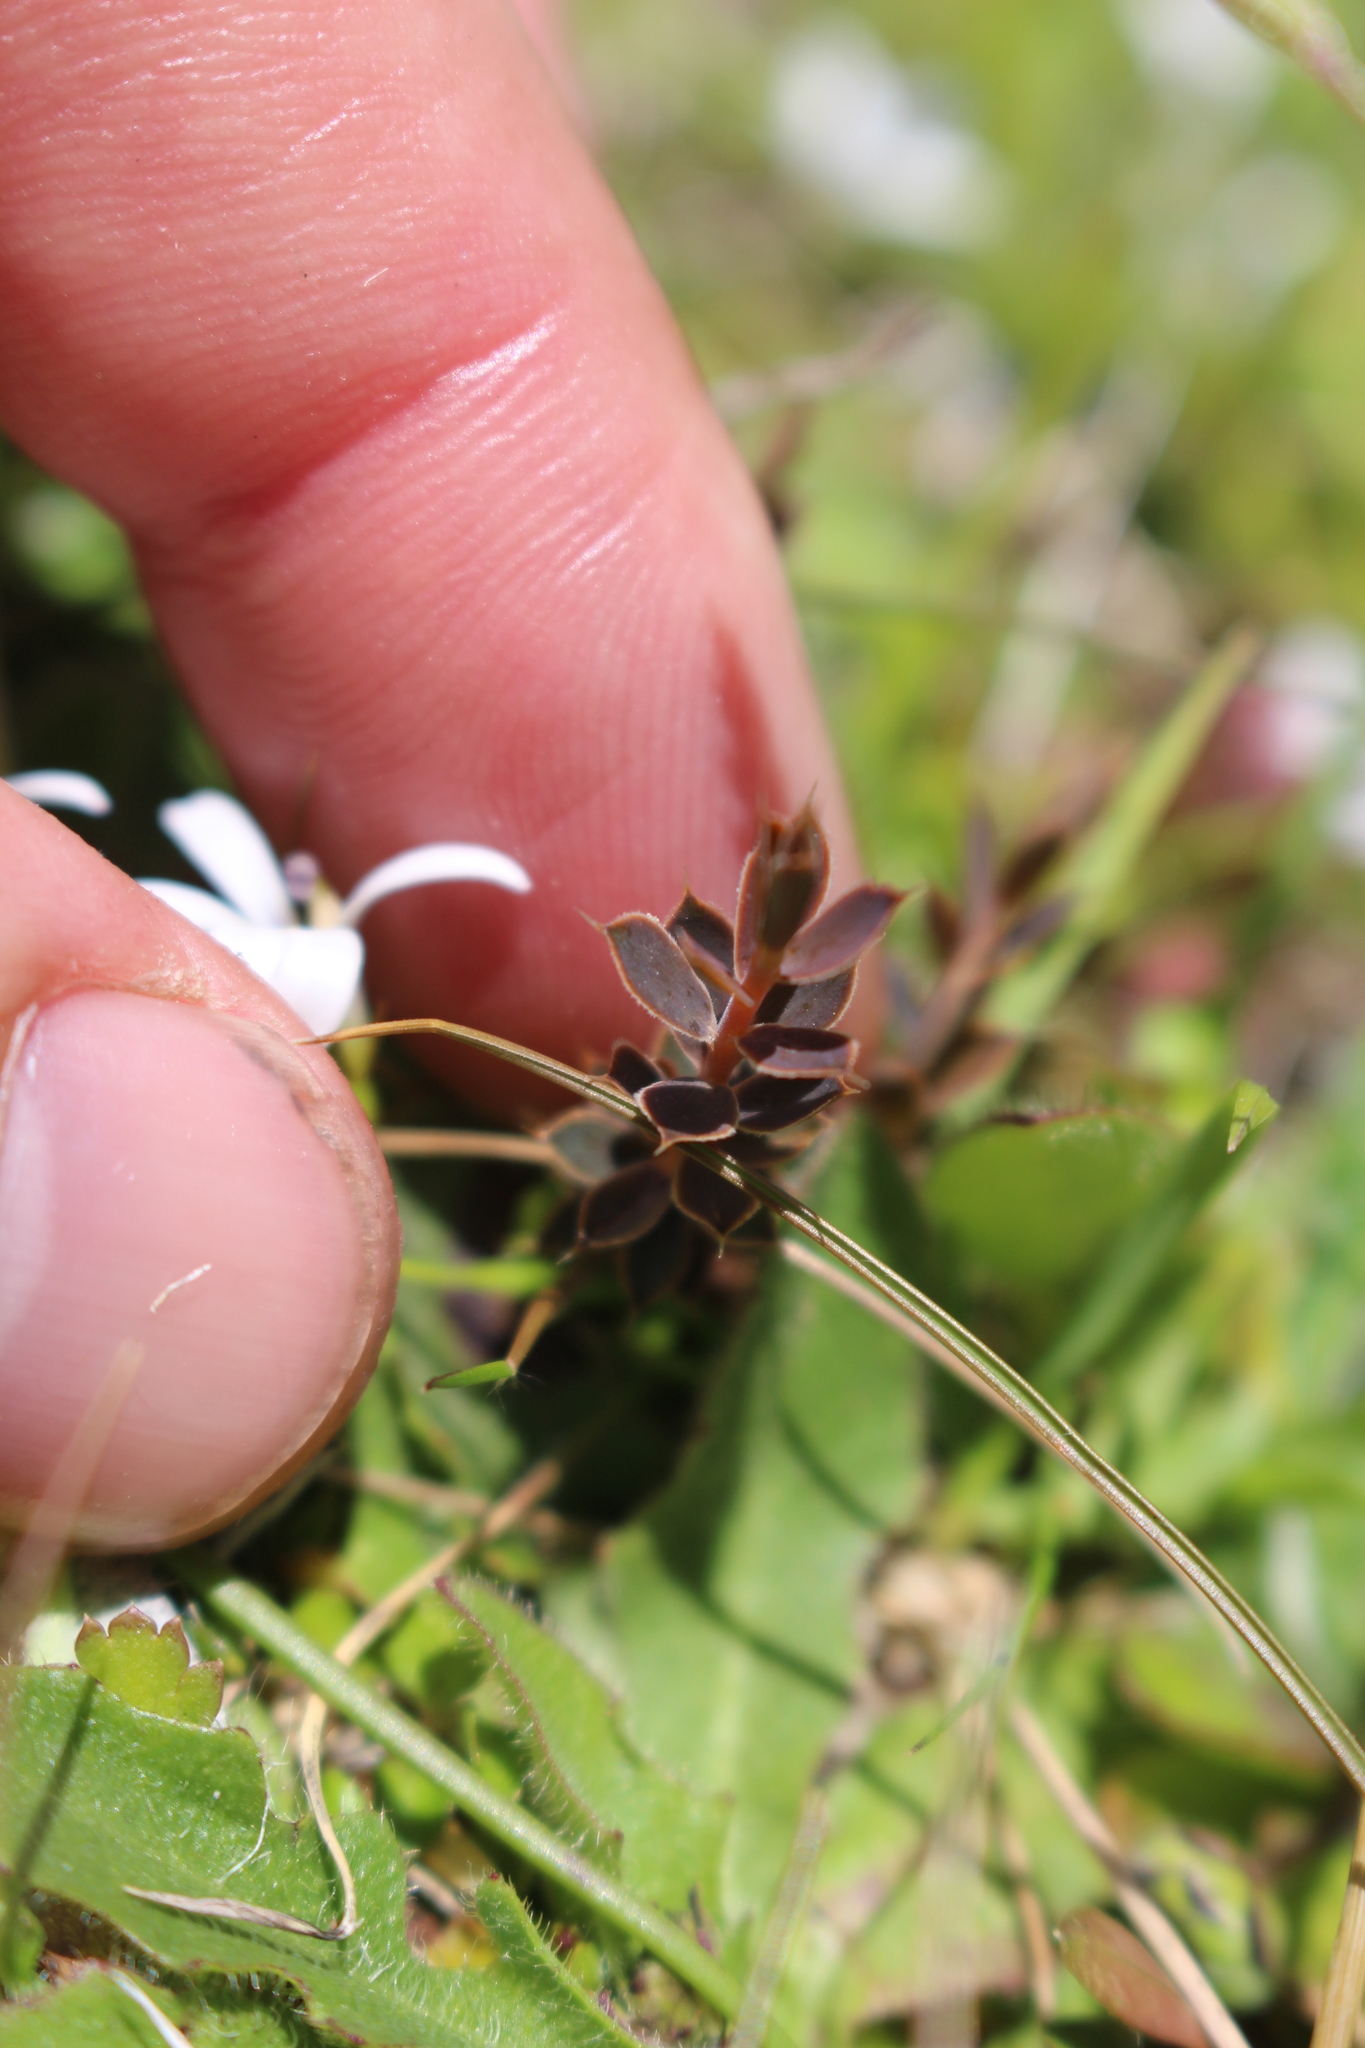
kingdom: Plantae
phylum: Tracheophyta
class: Magnoliopsida
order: Ericales
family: Ericaceae
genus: Styphelia
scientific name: Styphelia nesophila
